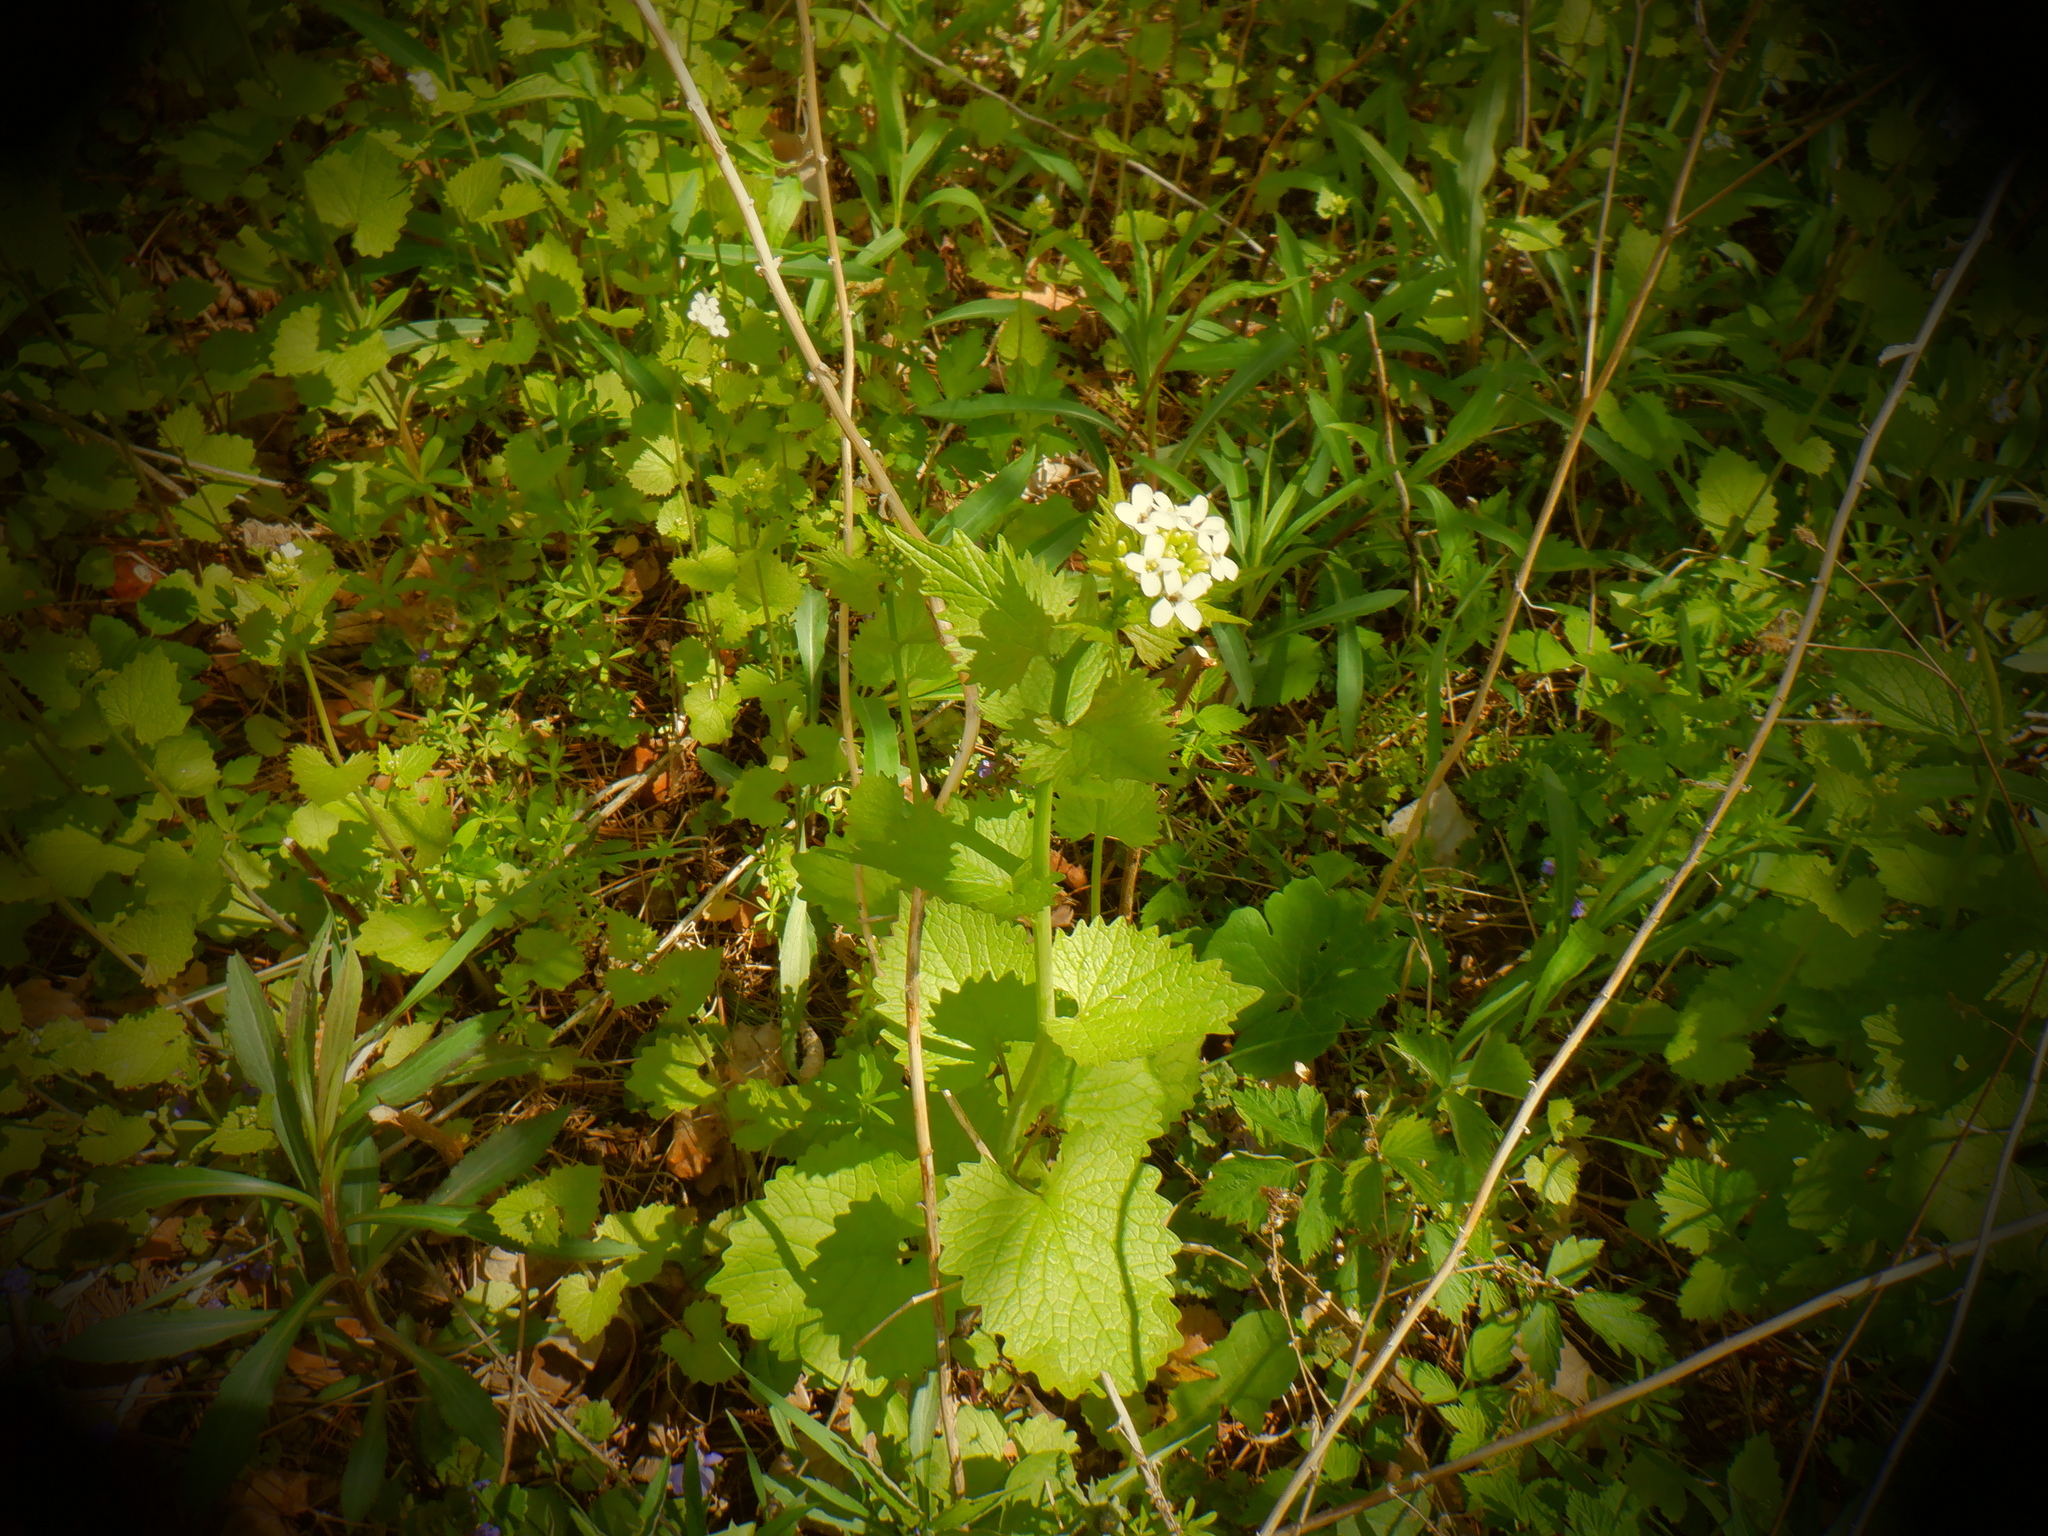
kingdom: Plantae
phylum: Tracheophyta
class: Magnoliopsida
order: Brassicales
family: Brassicaceae
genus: Alliaria
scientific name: Alliaria petiolata
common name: Garlic mustard
